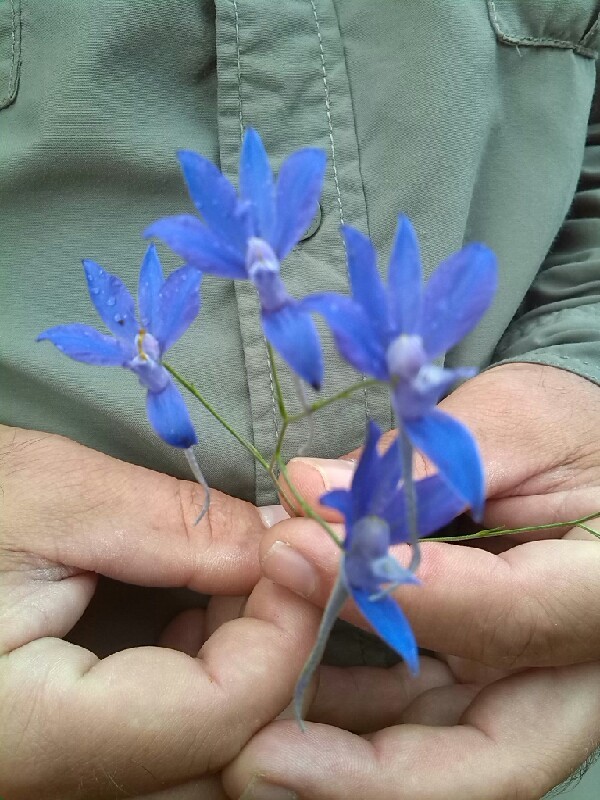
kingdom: Plantae
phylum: Tracheophyta
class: Magnoliopsida
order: Ranunculales
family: Ranunculaceae
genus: Delphinium
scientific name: Delphinium consolida
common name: Branching larkspur
